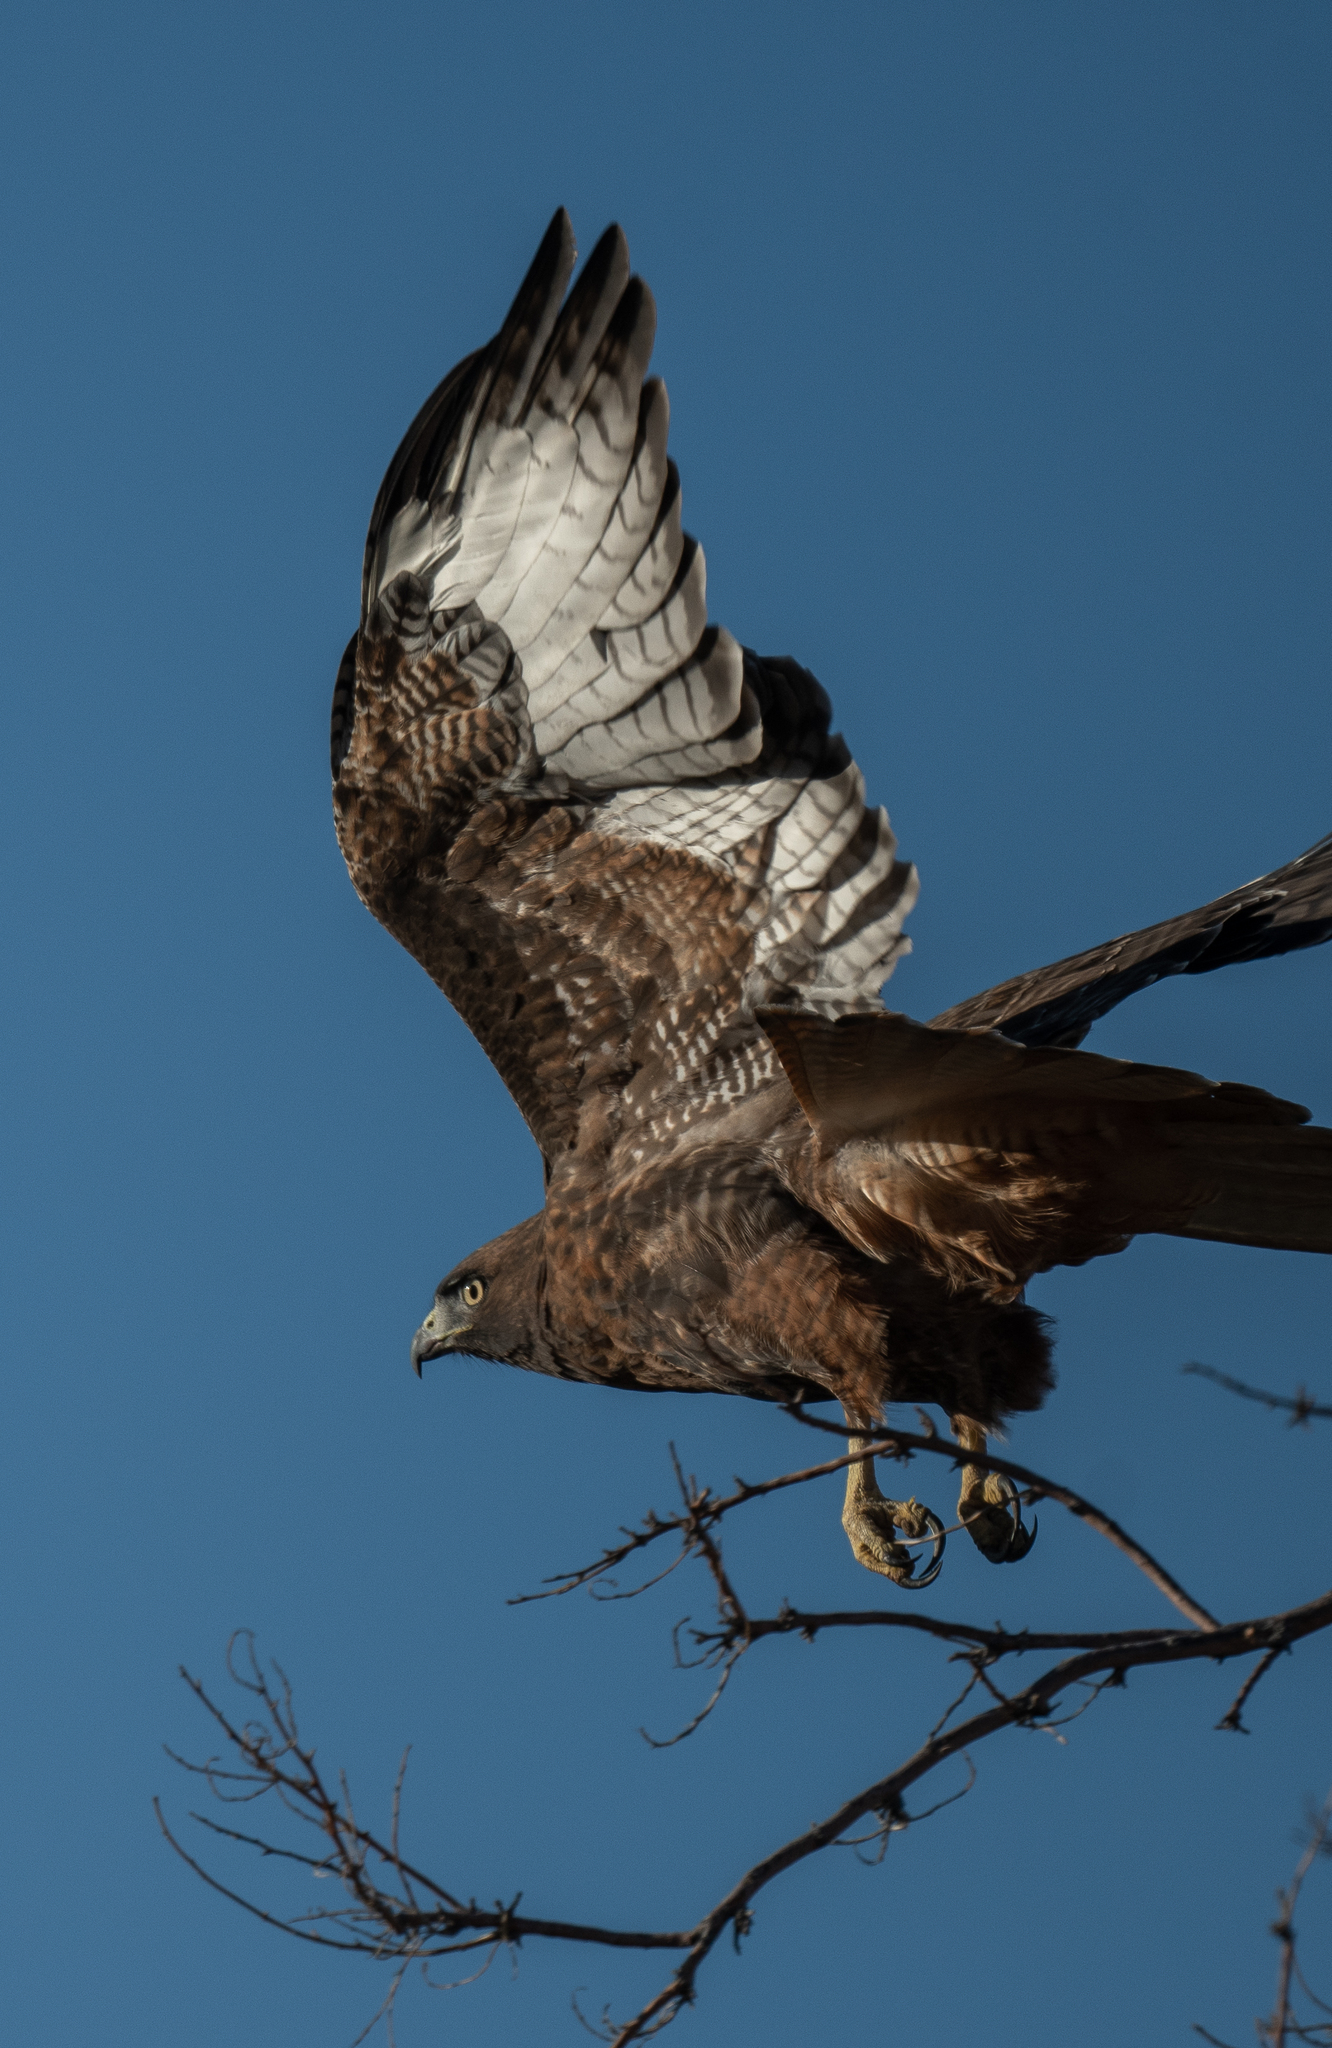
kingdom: Animalia
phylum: Chordata
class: Aves
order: Accipitriformes
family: Accipitridae
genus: Buteo
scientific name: Buteo jamaicensis
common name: Red-tailed hawk
